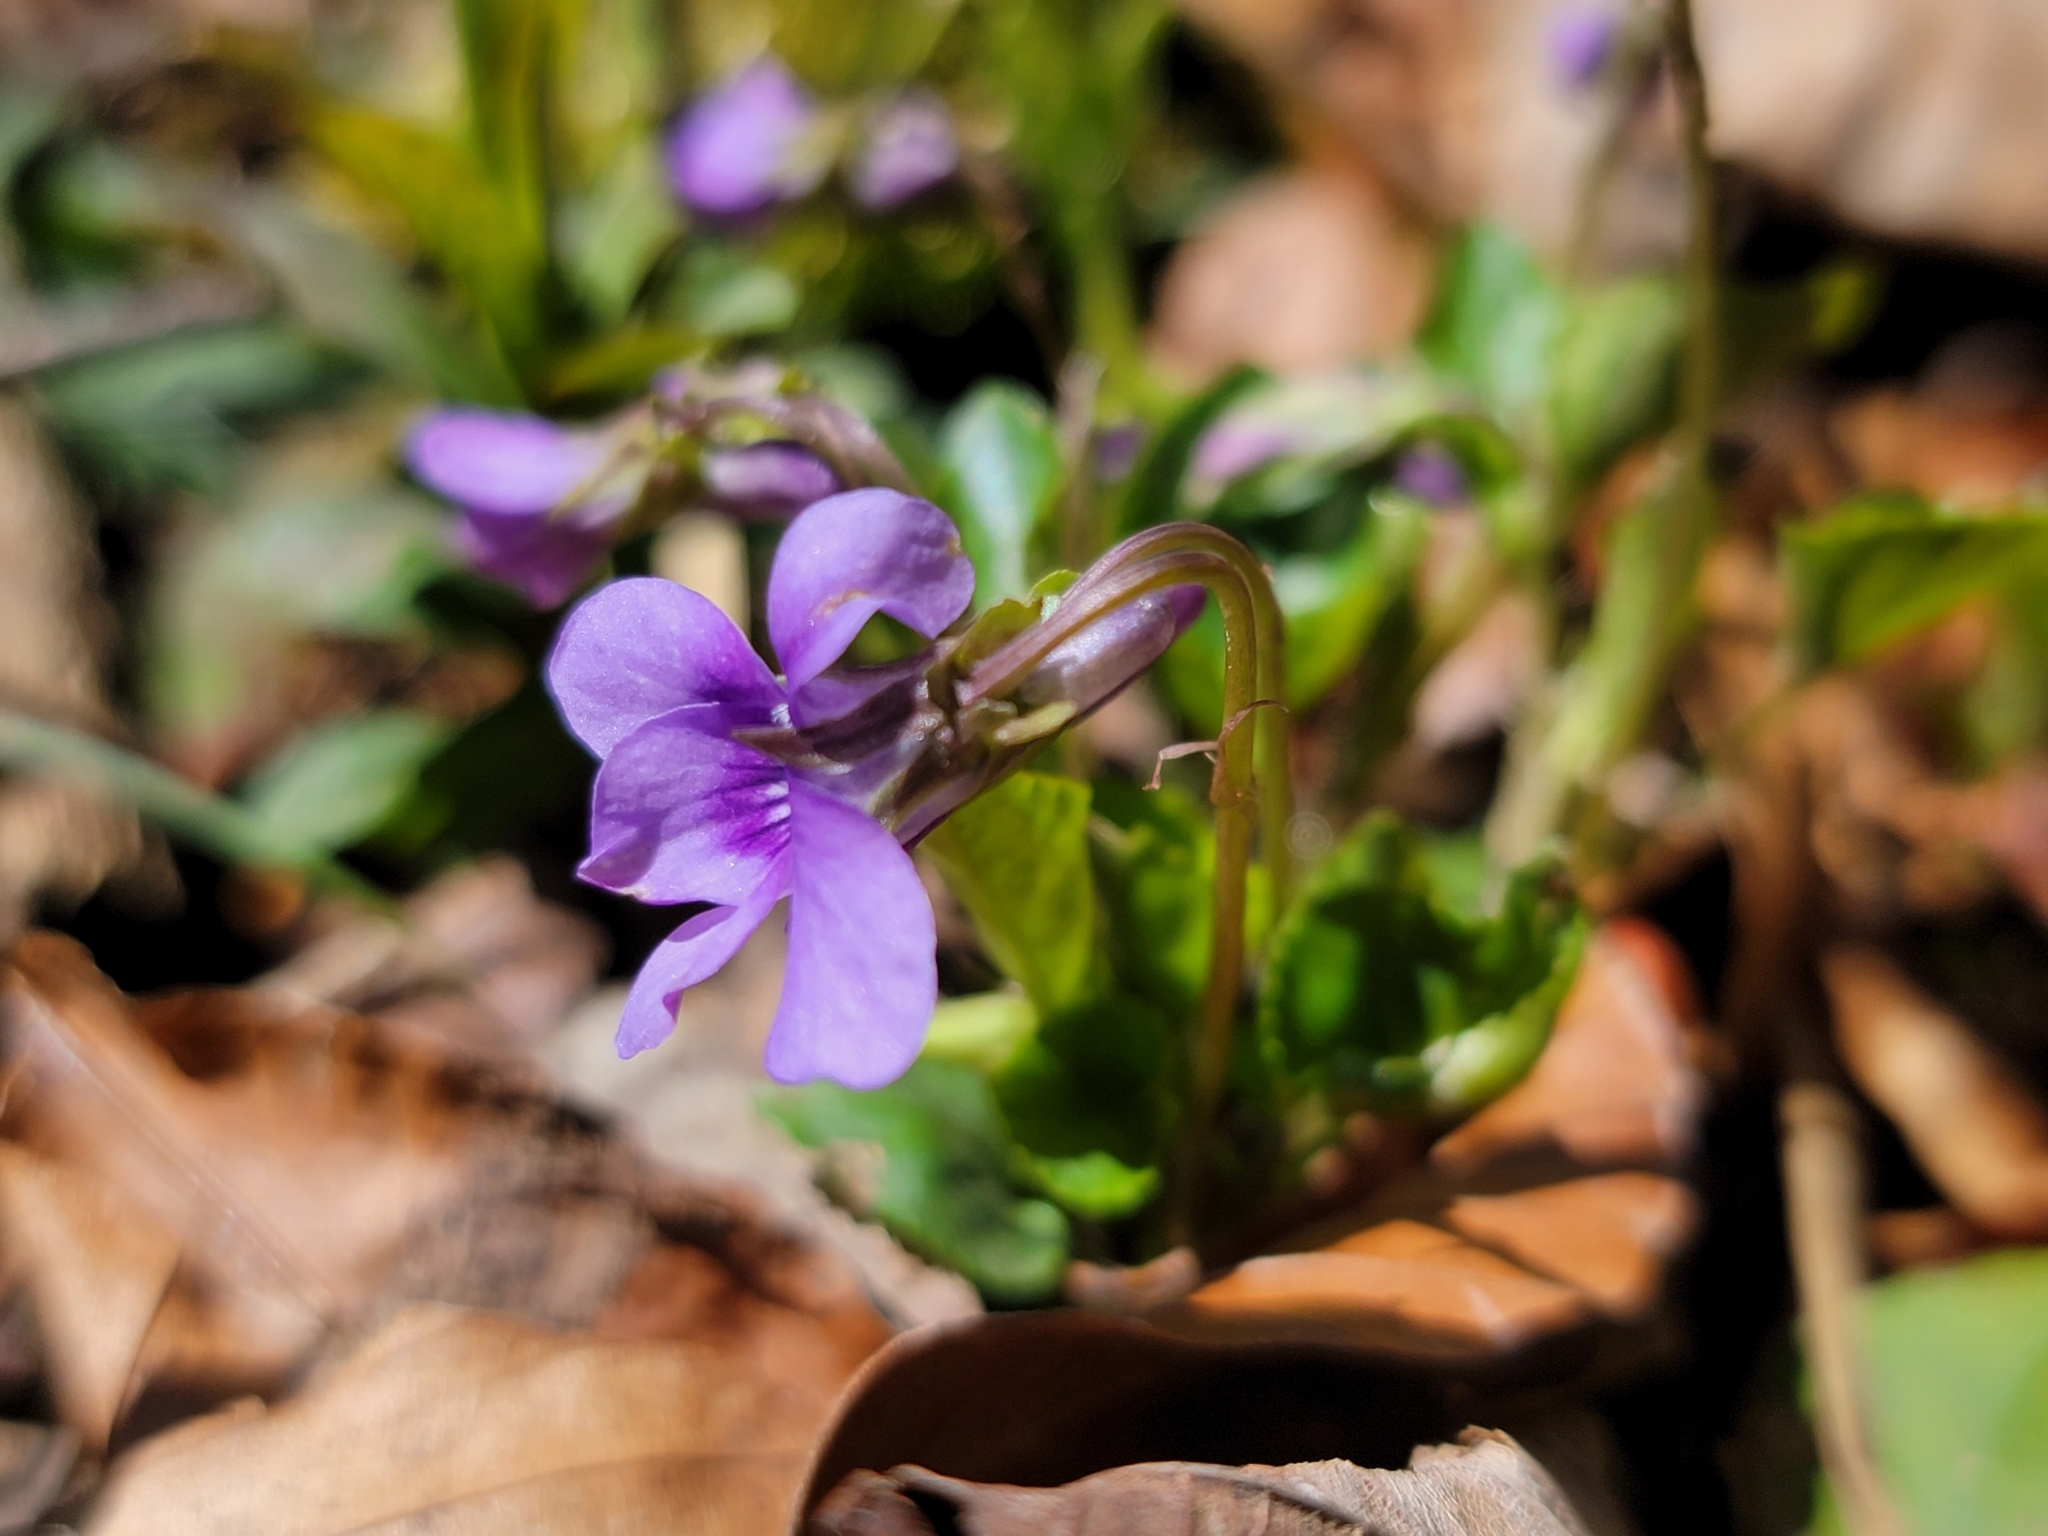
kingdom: Plantae
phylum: Tracheophyta
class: Magnoliopsida
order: Malpighiales
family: Violaceae
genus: Viola
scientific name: Viola reichenbachiana
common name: Early dog-violet
